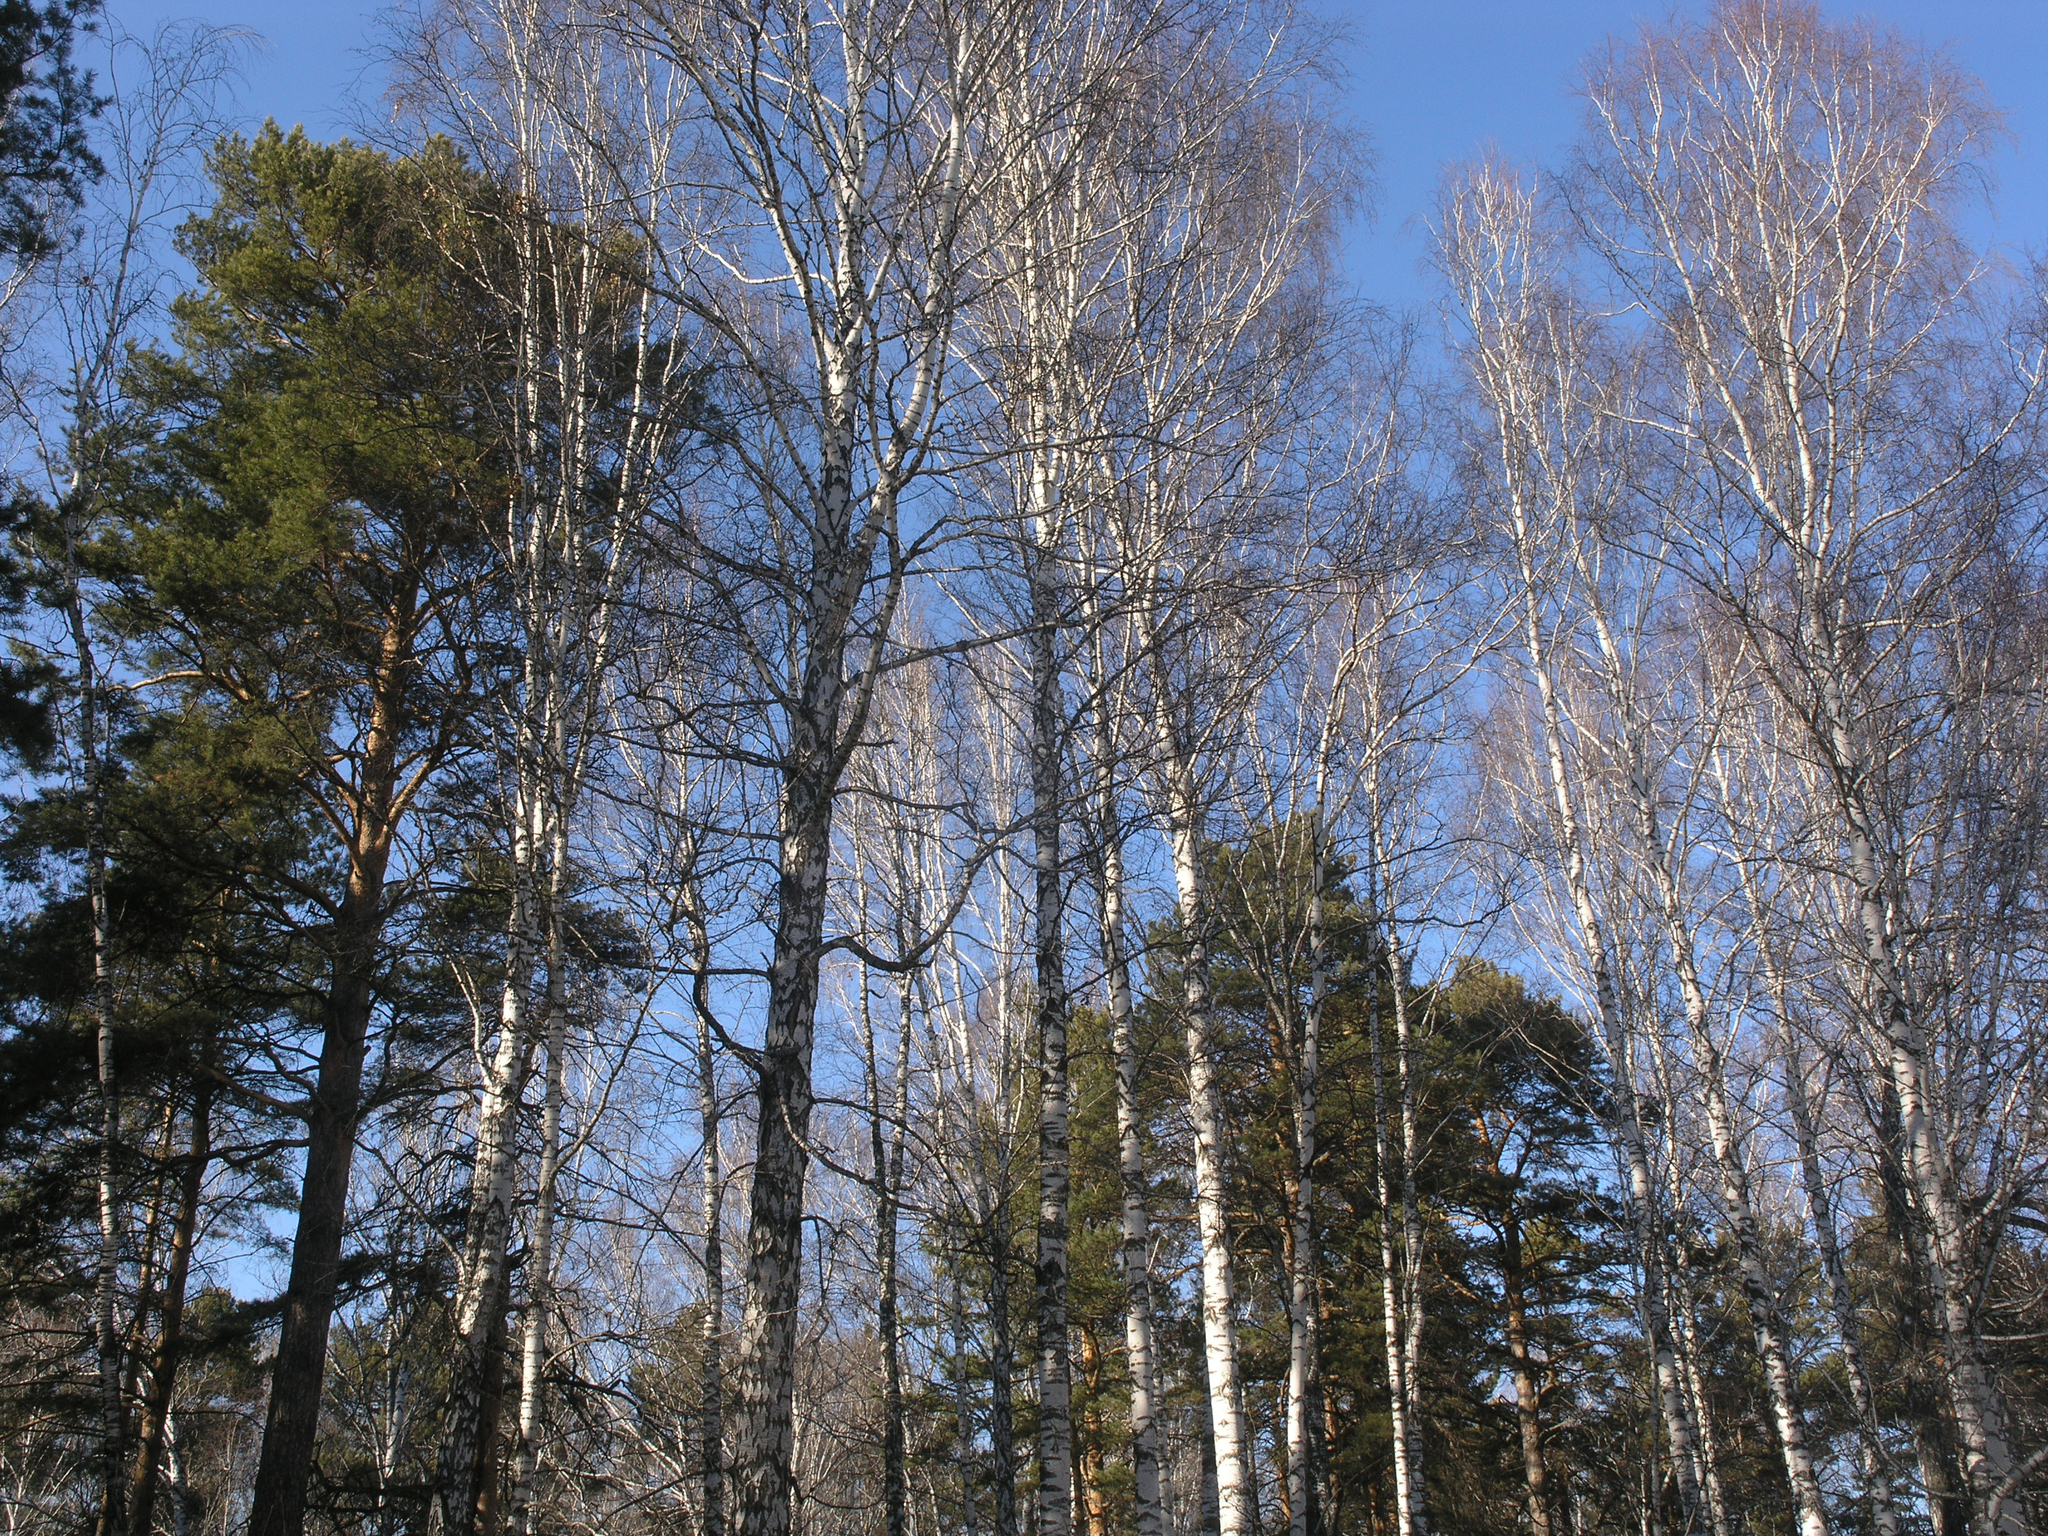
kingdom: Plantae
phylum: Tracheophyta
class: Pinopsida
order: Pinales
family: Pinaceae
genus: Pinus
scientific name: Pinus sylvestris
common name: Scots pine
